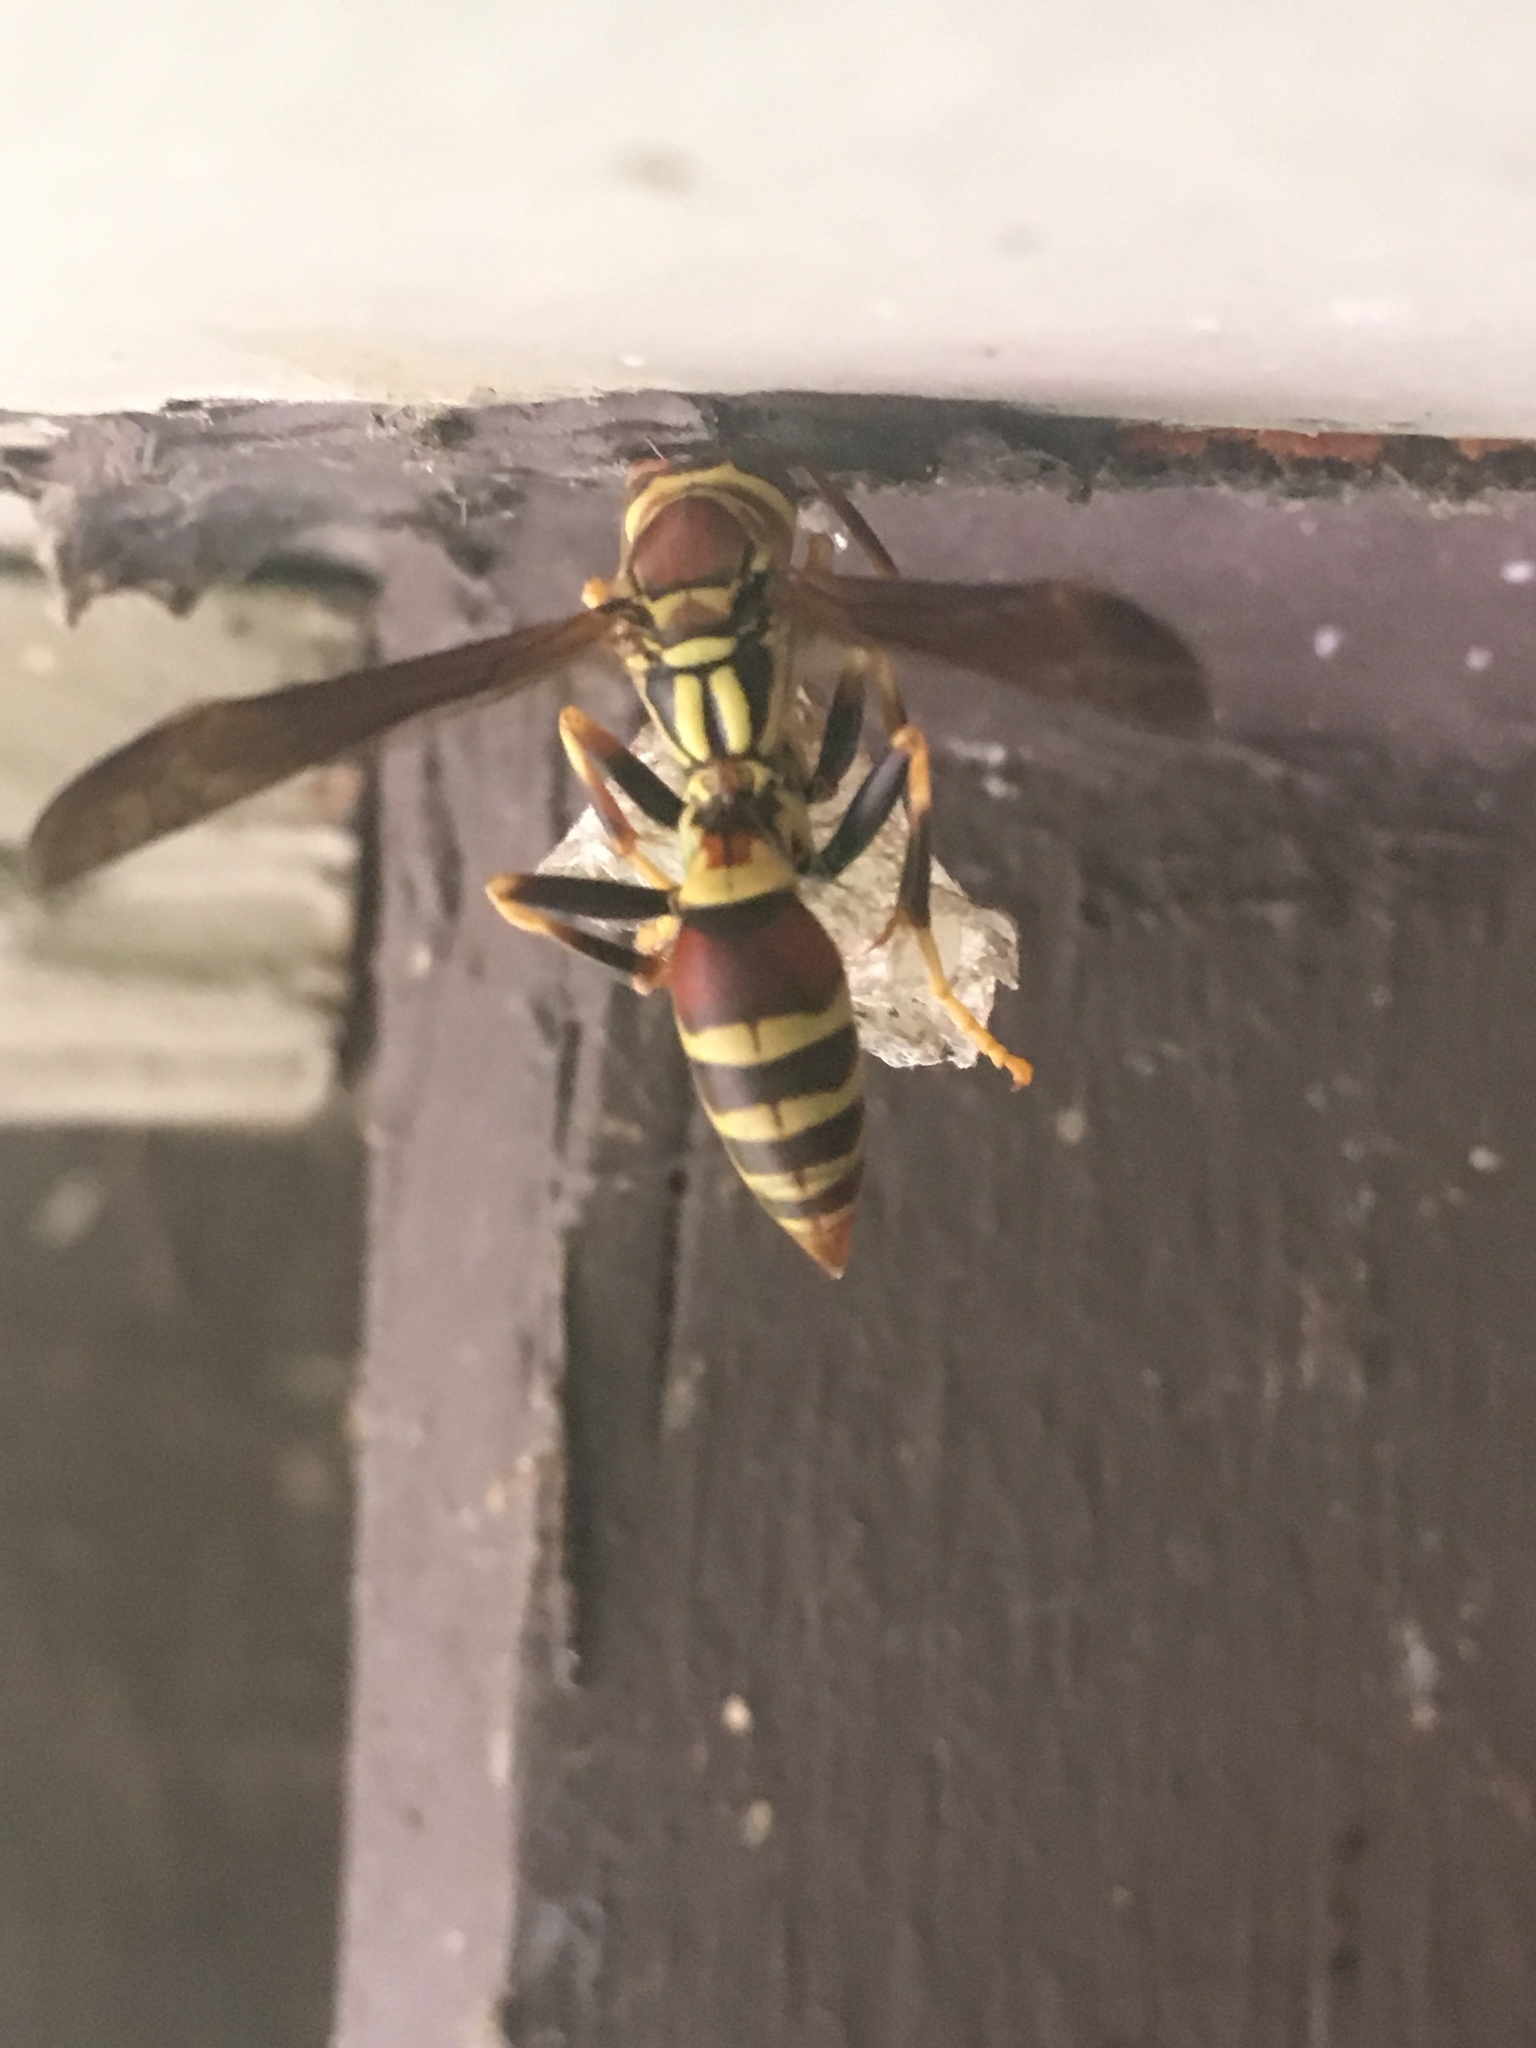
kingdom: Animalia
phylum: Arthropoda
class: Insecta
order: Hymenoptera
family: Eumenidae
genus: Polistes
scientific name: Polistes exclamans
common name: Paper wasp
